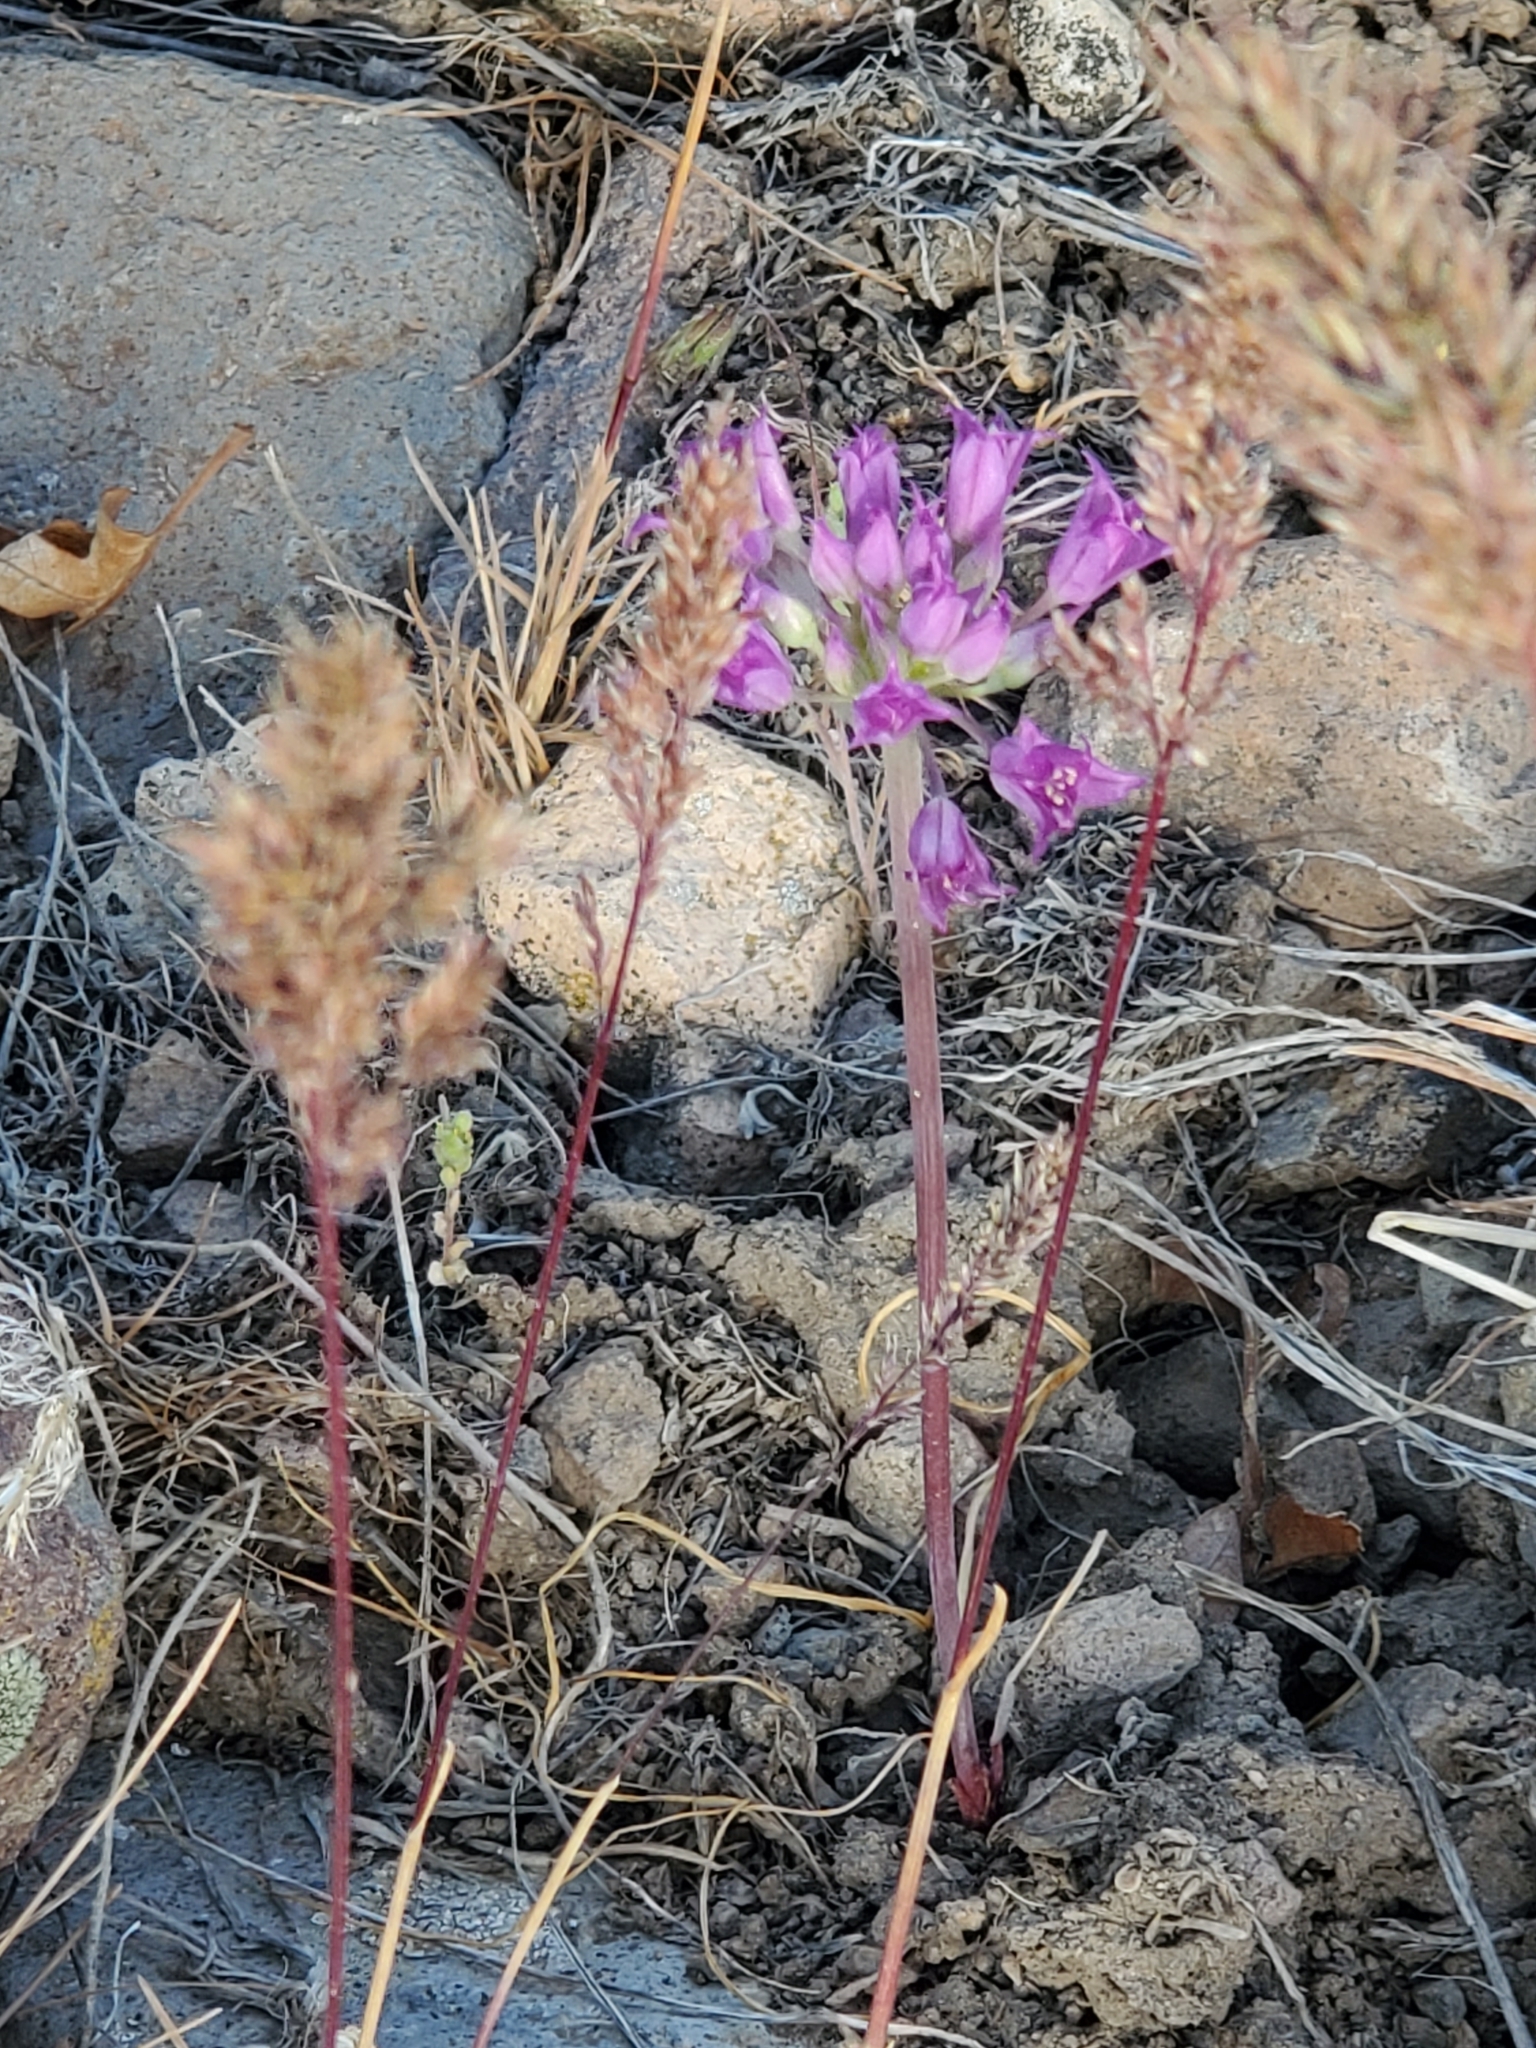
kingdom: Plantae
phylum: Tracheophyta
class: Liliopsida
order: Asparagales
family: Amaryllidaceae
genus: Allium
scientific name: Allium acuminatum
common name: Hooker's onion
